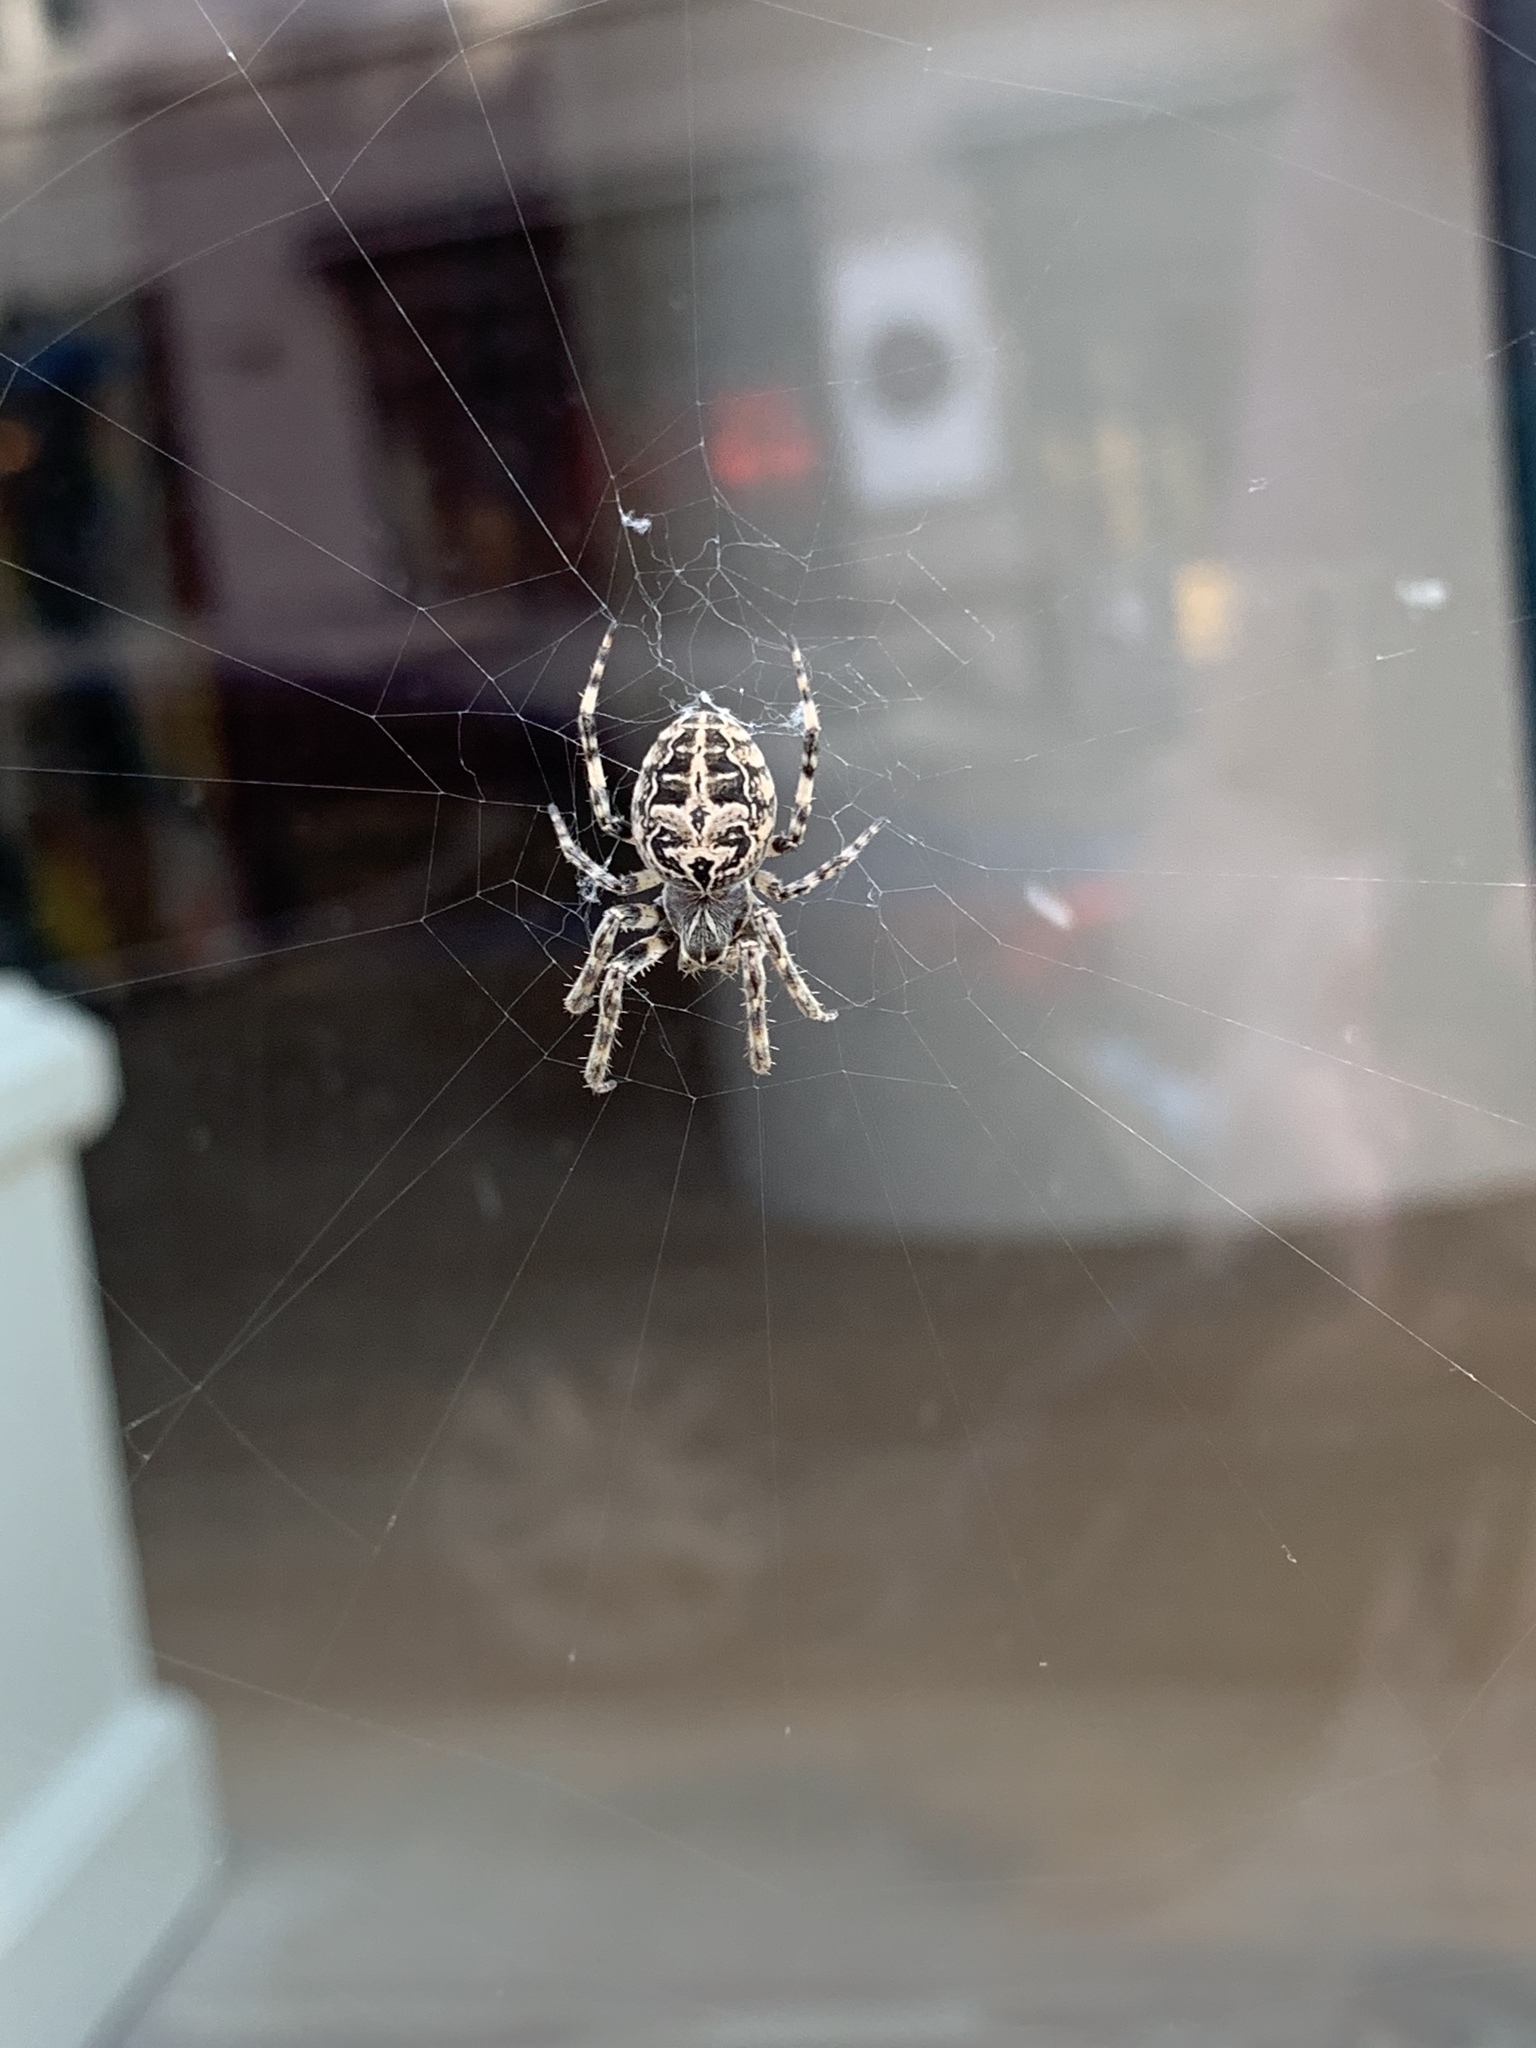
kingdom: Animalia
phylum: Arthropoda
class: Arachnida
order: Araneae
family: Araneidae
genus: Araneus
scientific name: Araneus diadematus
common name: Cross orbweaver
